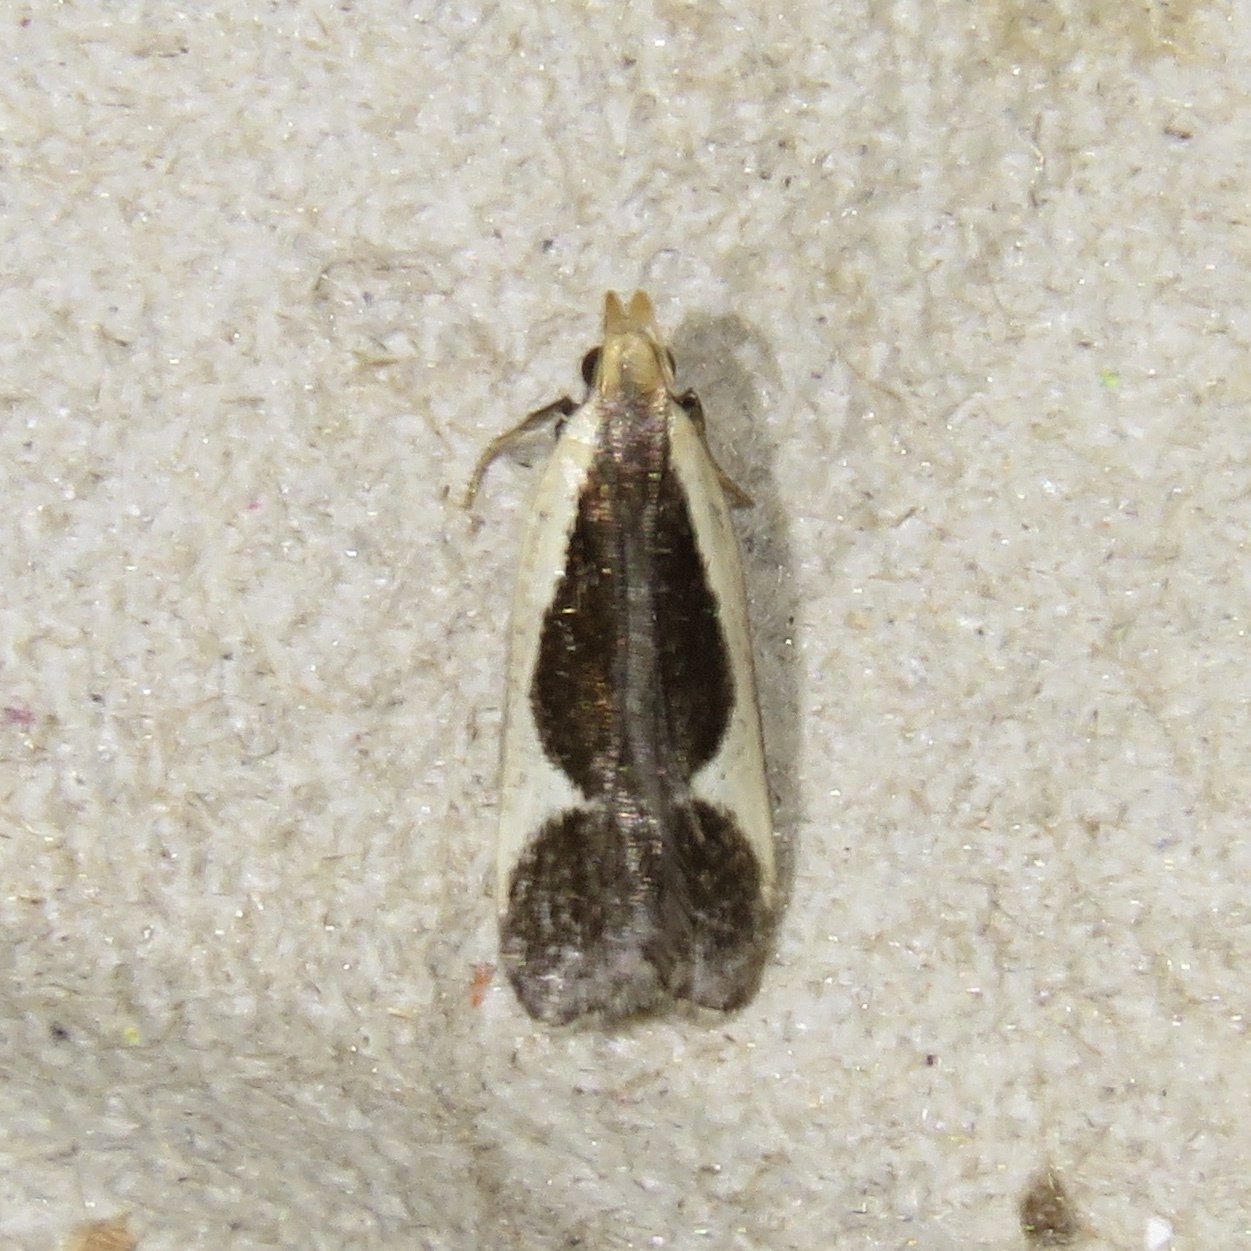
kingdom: Animalia
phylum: Arthropoda
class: Insecta
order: Lepidoptera
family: Gelechiidae
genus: Dichomeris
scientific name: Dichomeris flavocostella
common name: Cream-edged dichomeris moth
